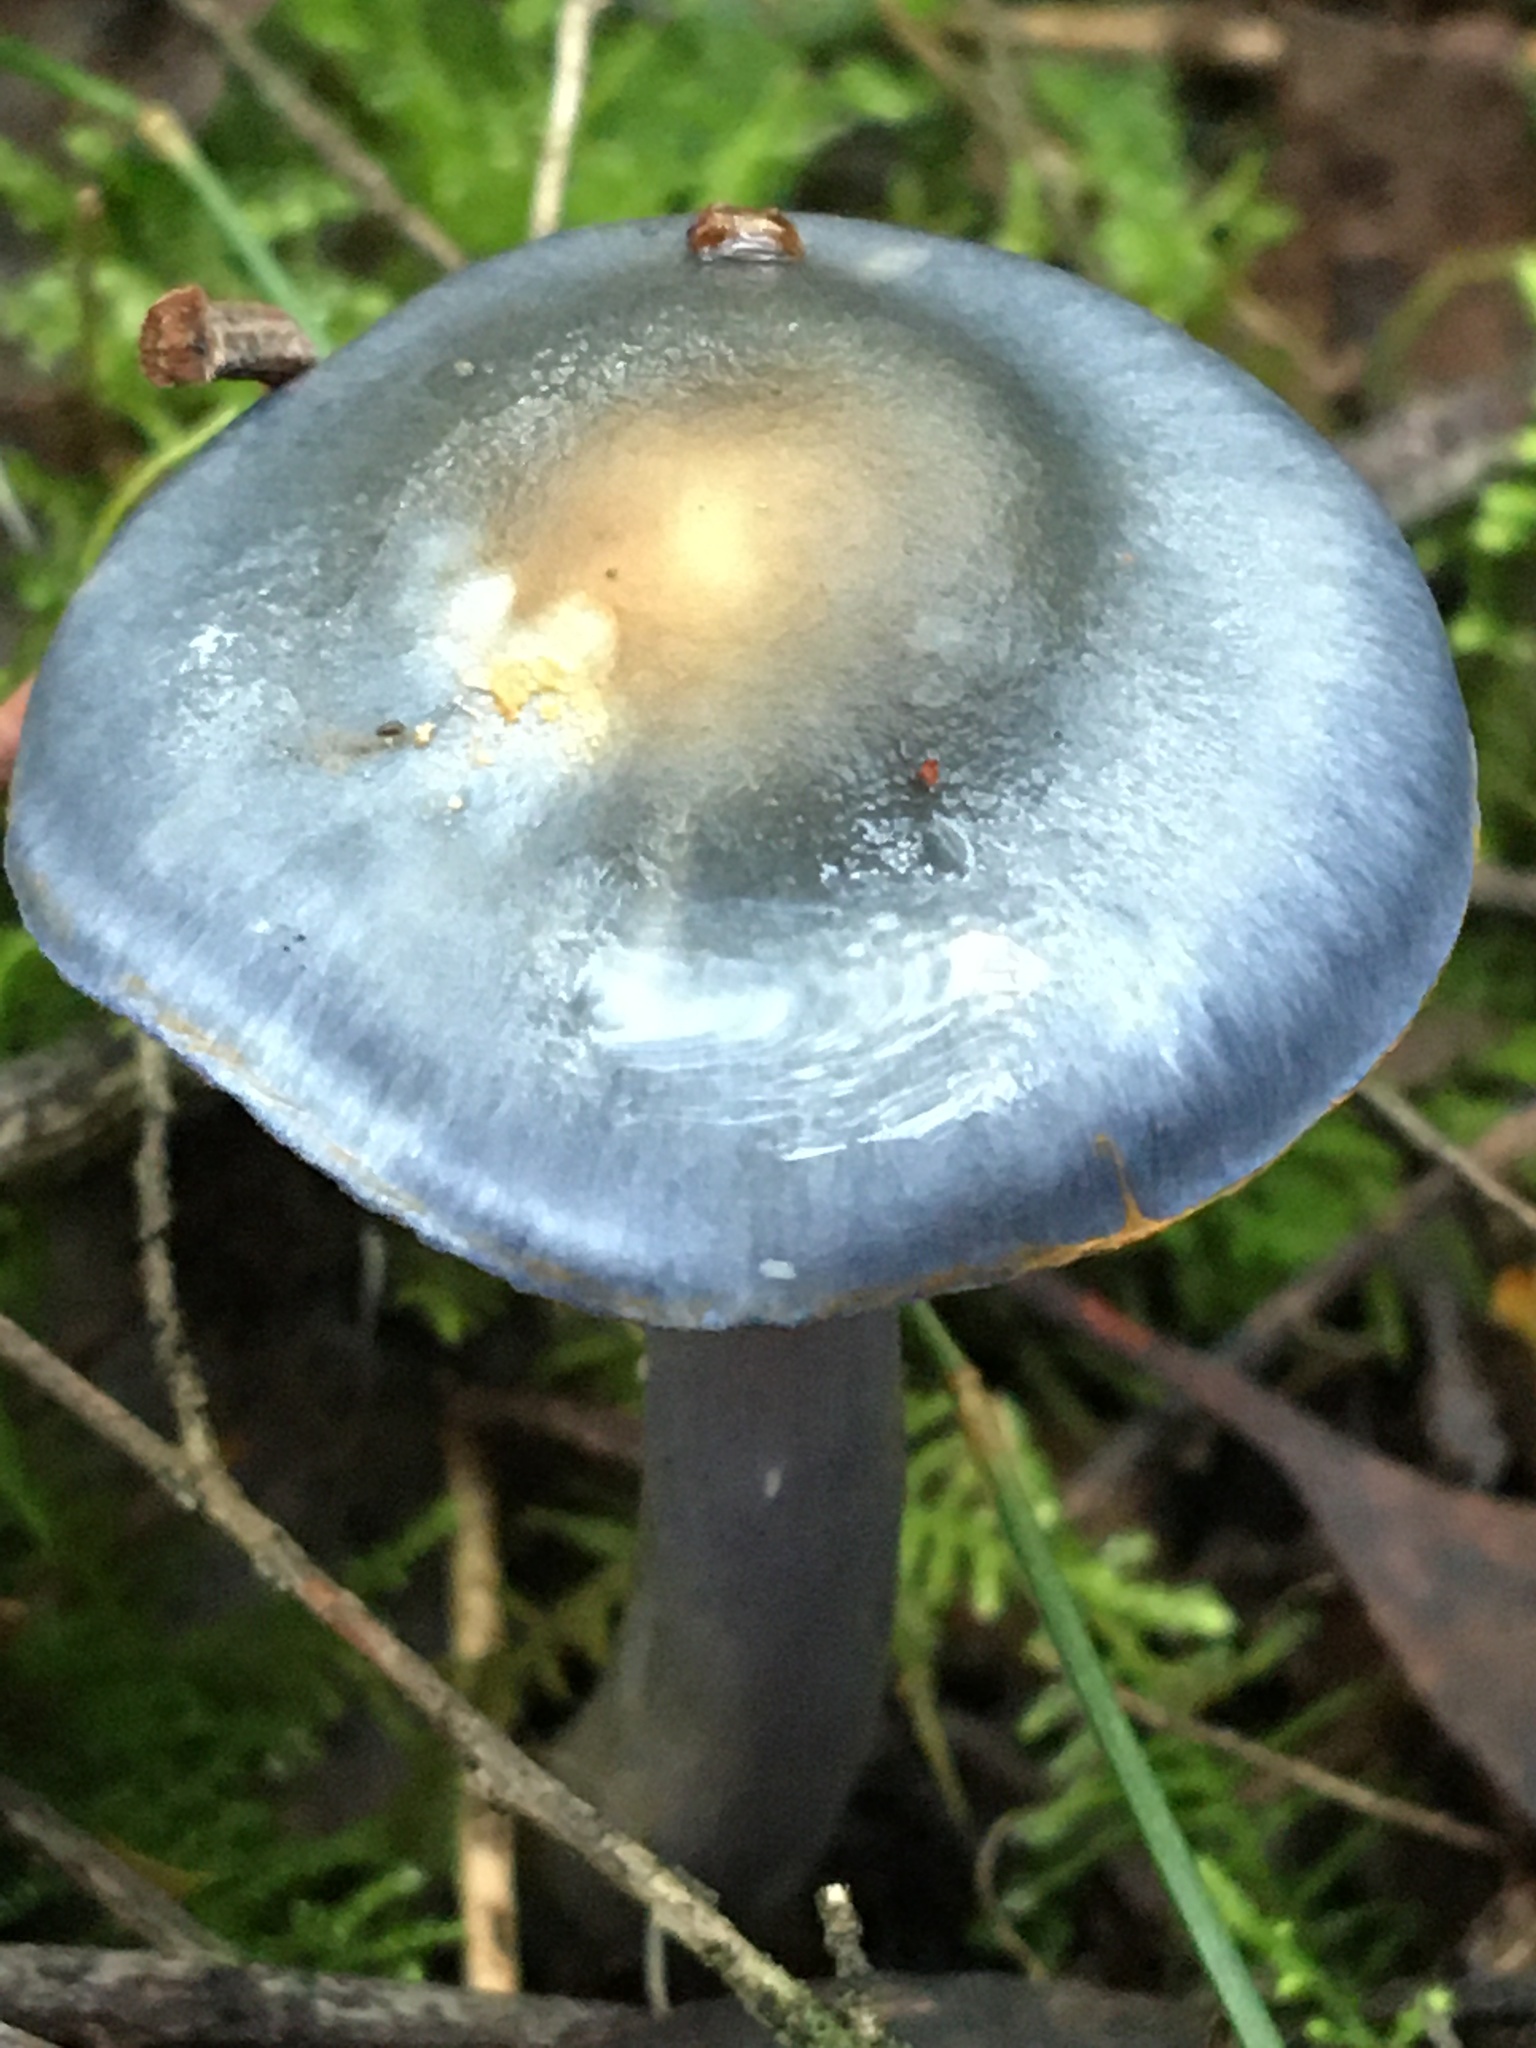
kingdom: Fungi
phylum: Basidiomycota
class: Agaricomycetes
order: Agaricales
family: Cortinariaceae
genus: Cortinarius
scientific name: Cortinarius rotundisporus
